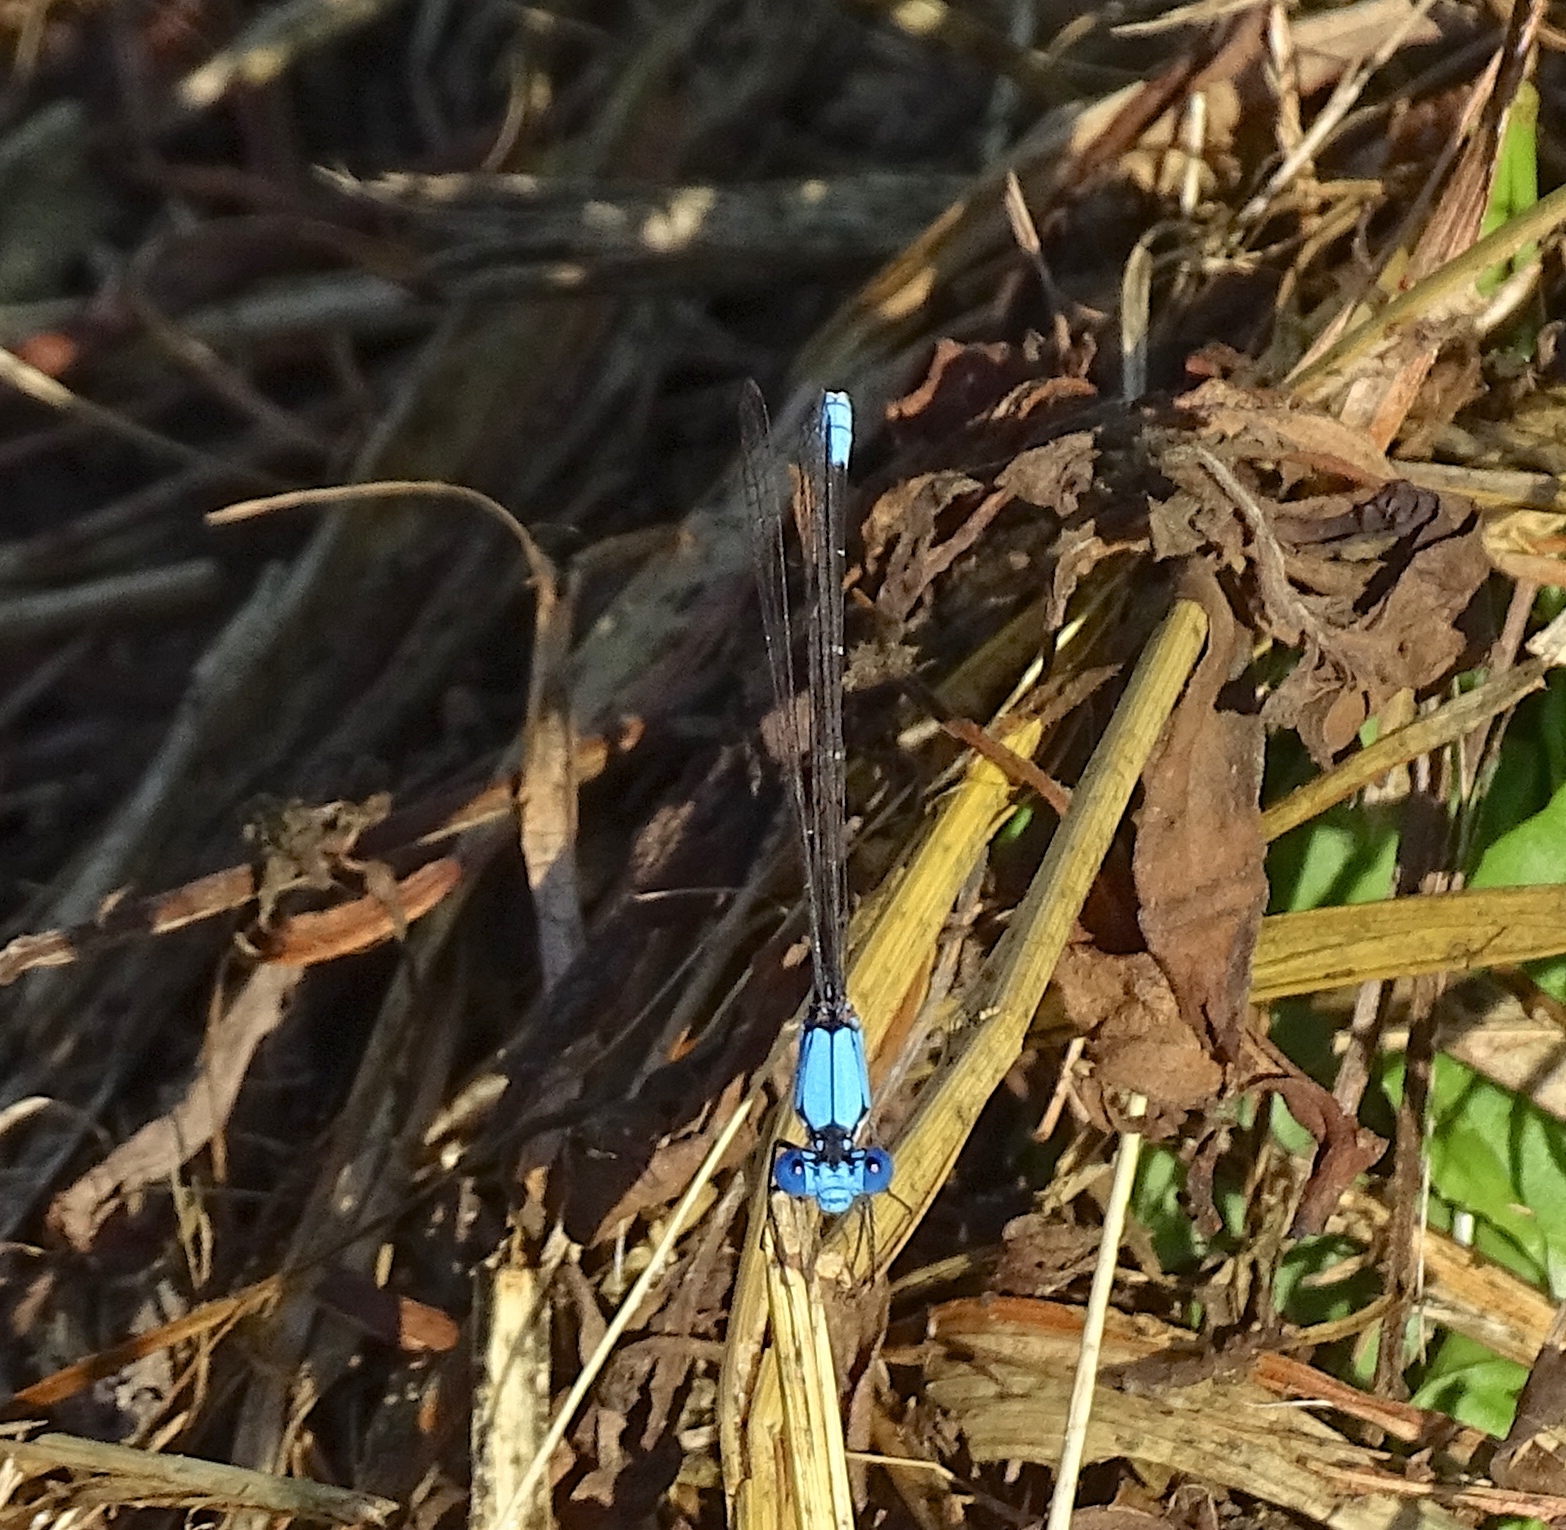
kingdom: Animalia
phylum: Arthropoda
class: Insecta
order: Odonata
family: Coenagrionidae
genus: Argia
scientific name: Argia apicalis
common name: Blue-fronted dancer
